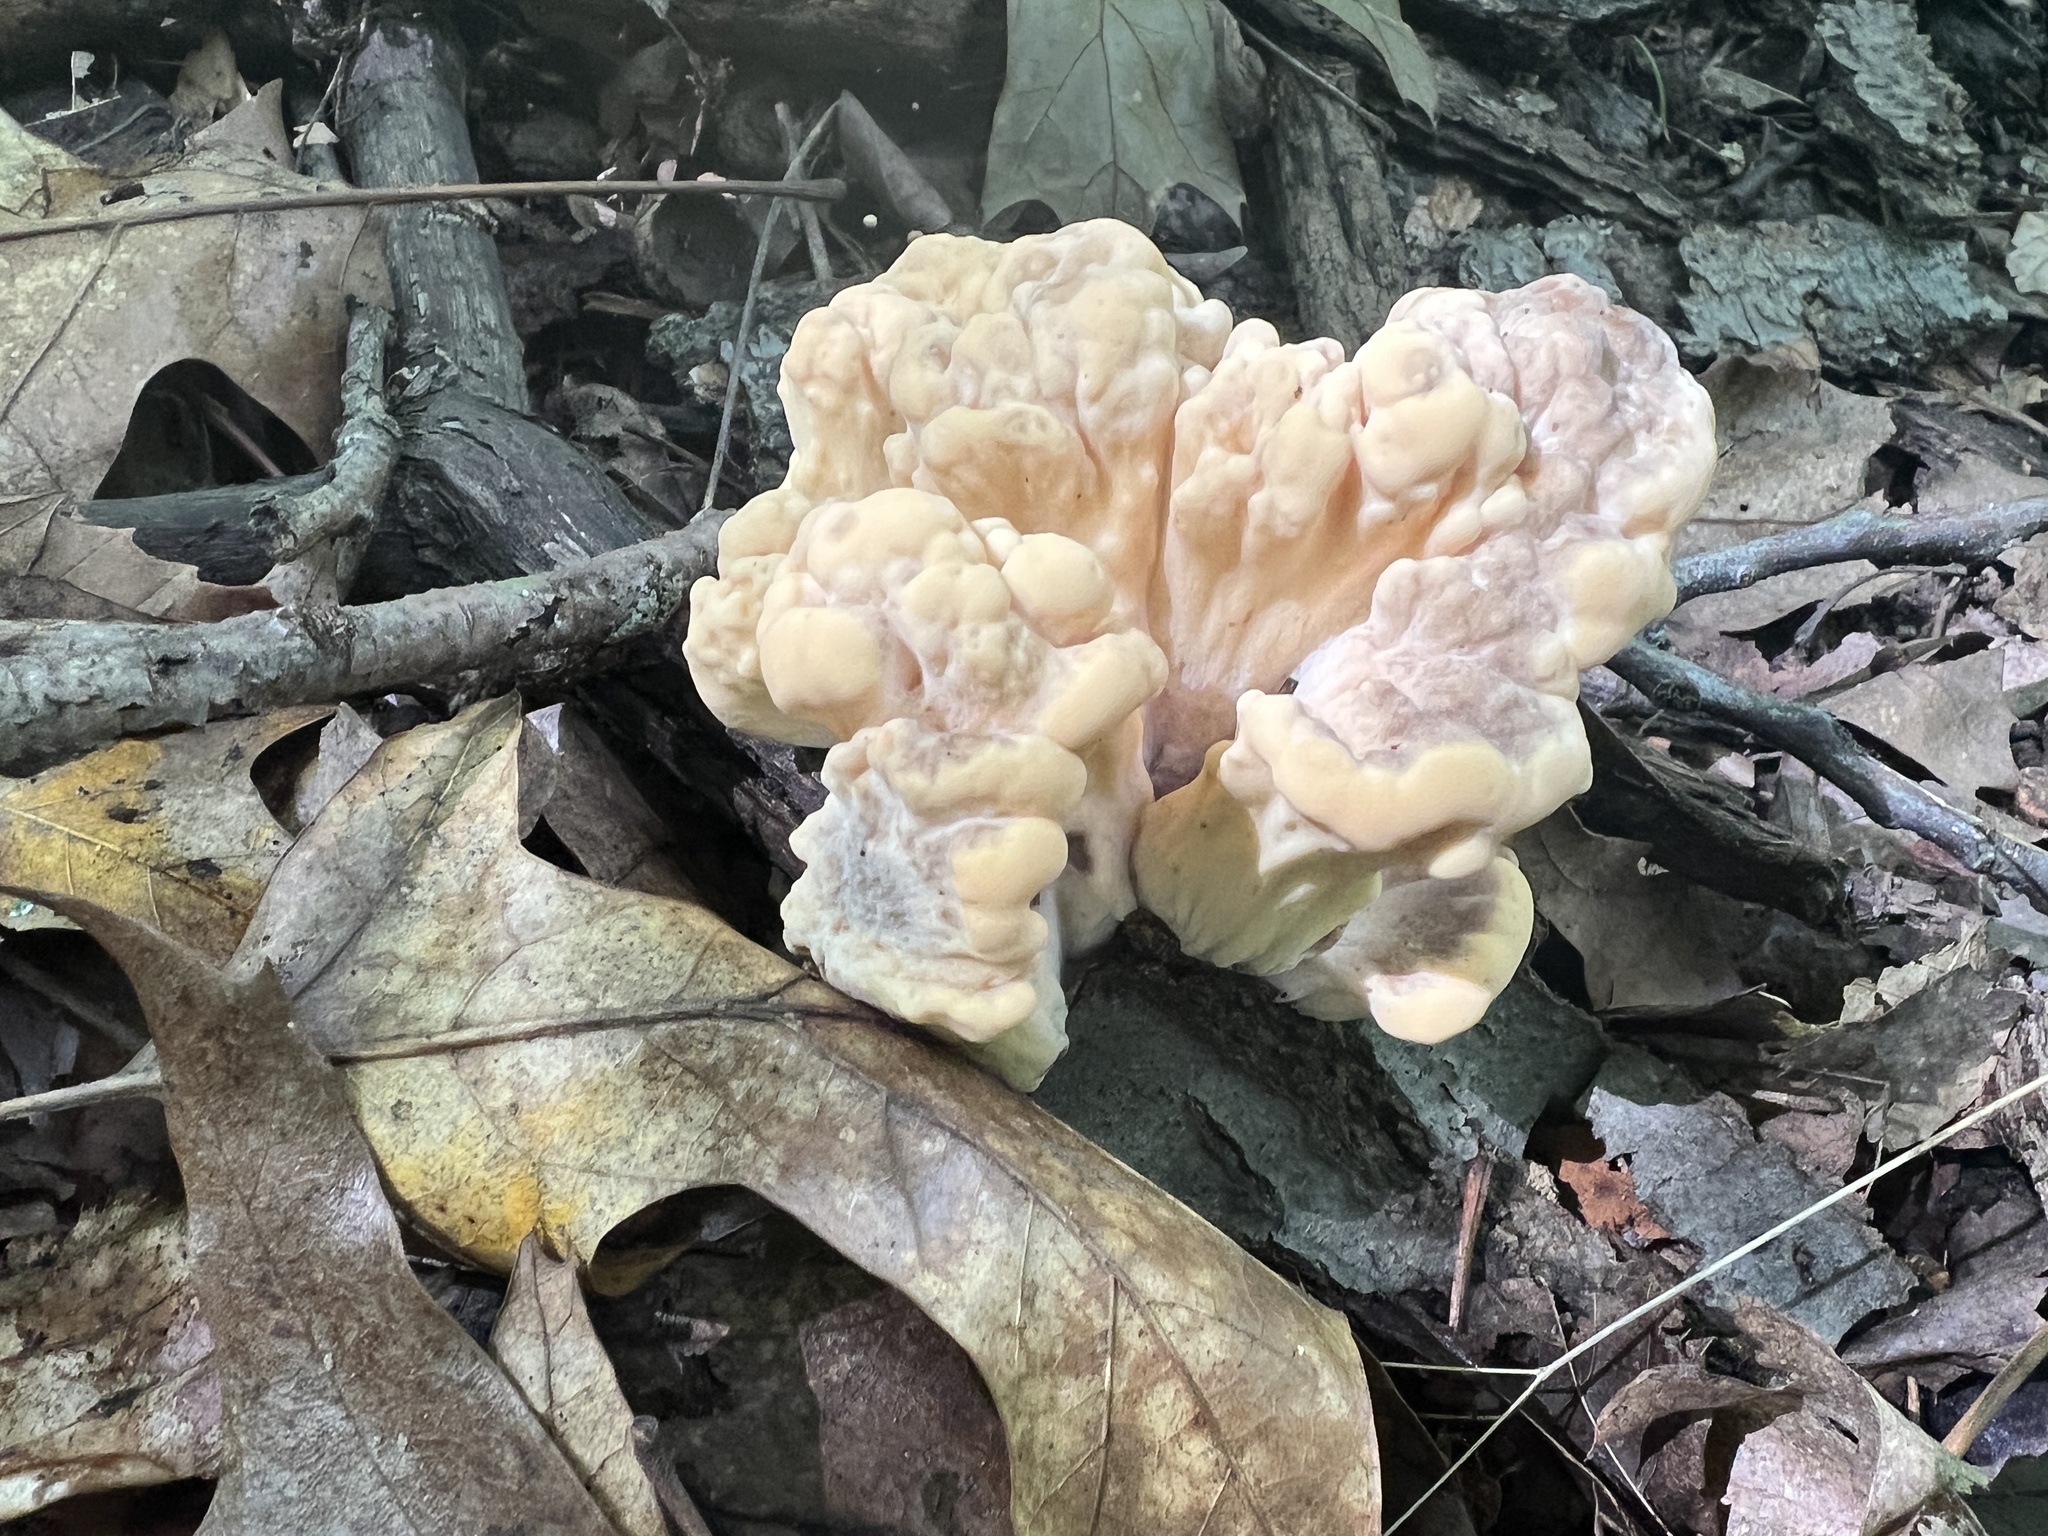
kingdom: Fungi
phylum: Basidiomycota
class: Agaricomycetes
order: Polyporales
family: Meripilaceae
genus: Meripilus
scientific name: Meripilus sumstinei
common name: Black-staining polypore
